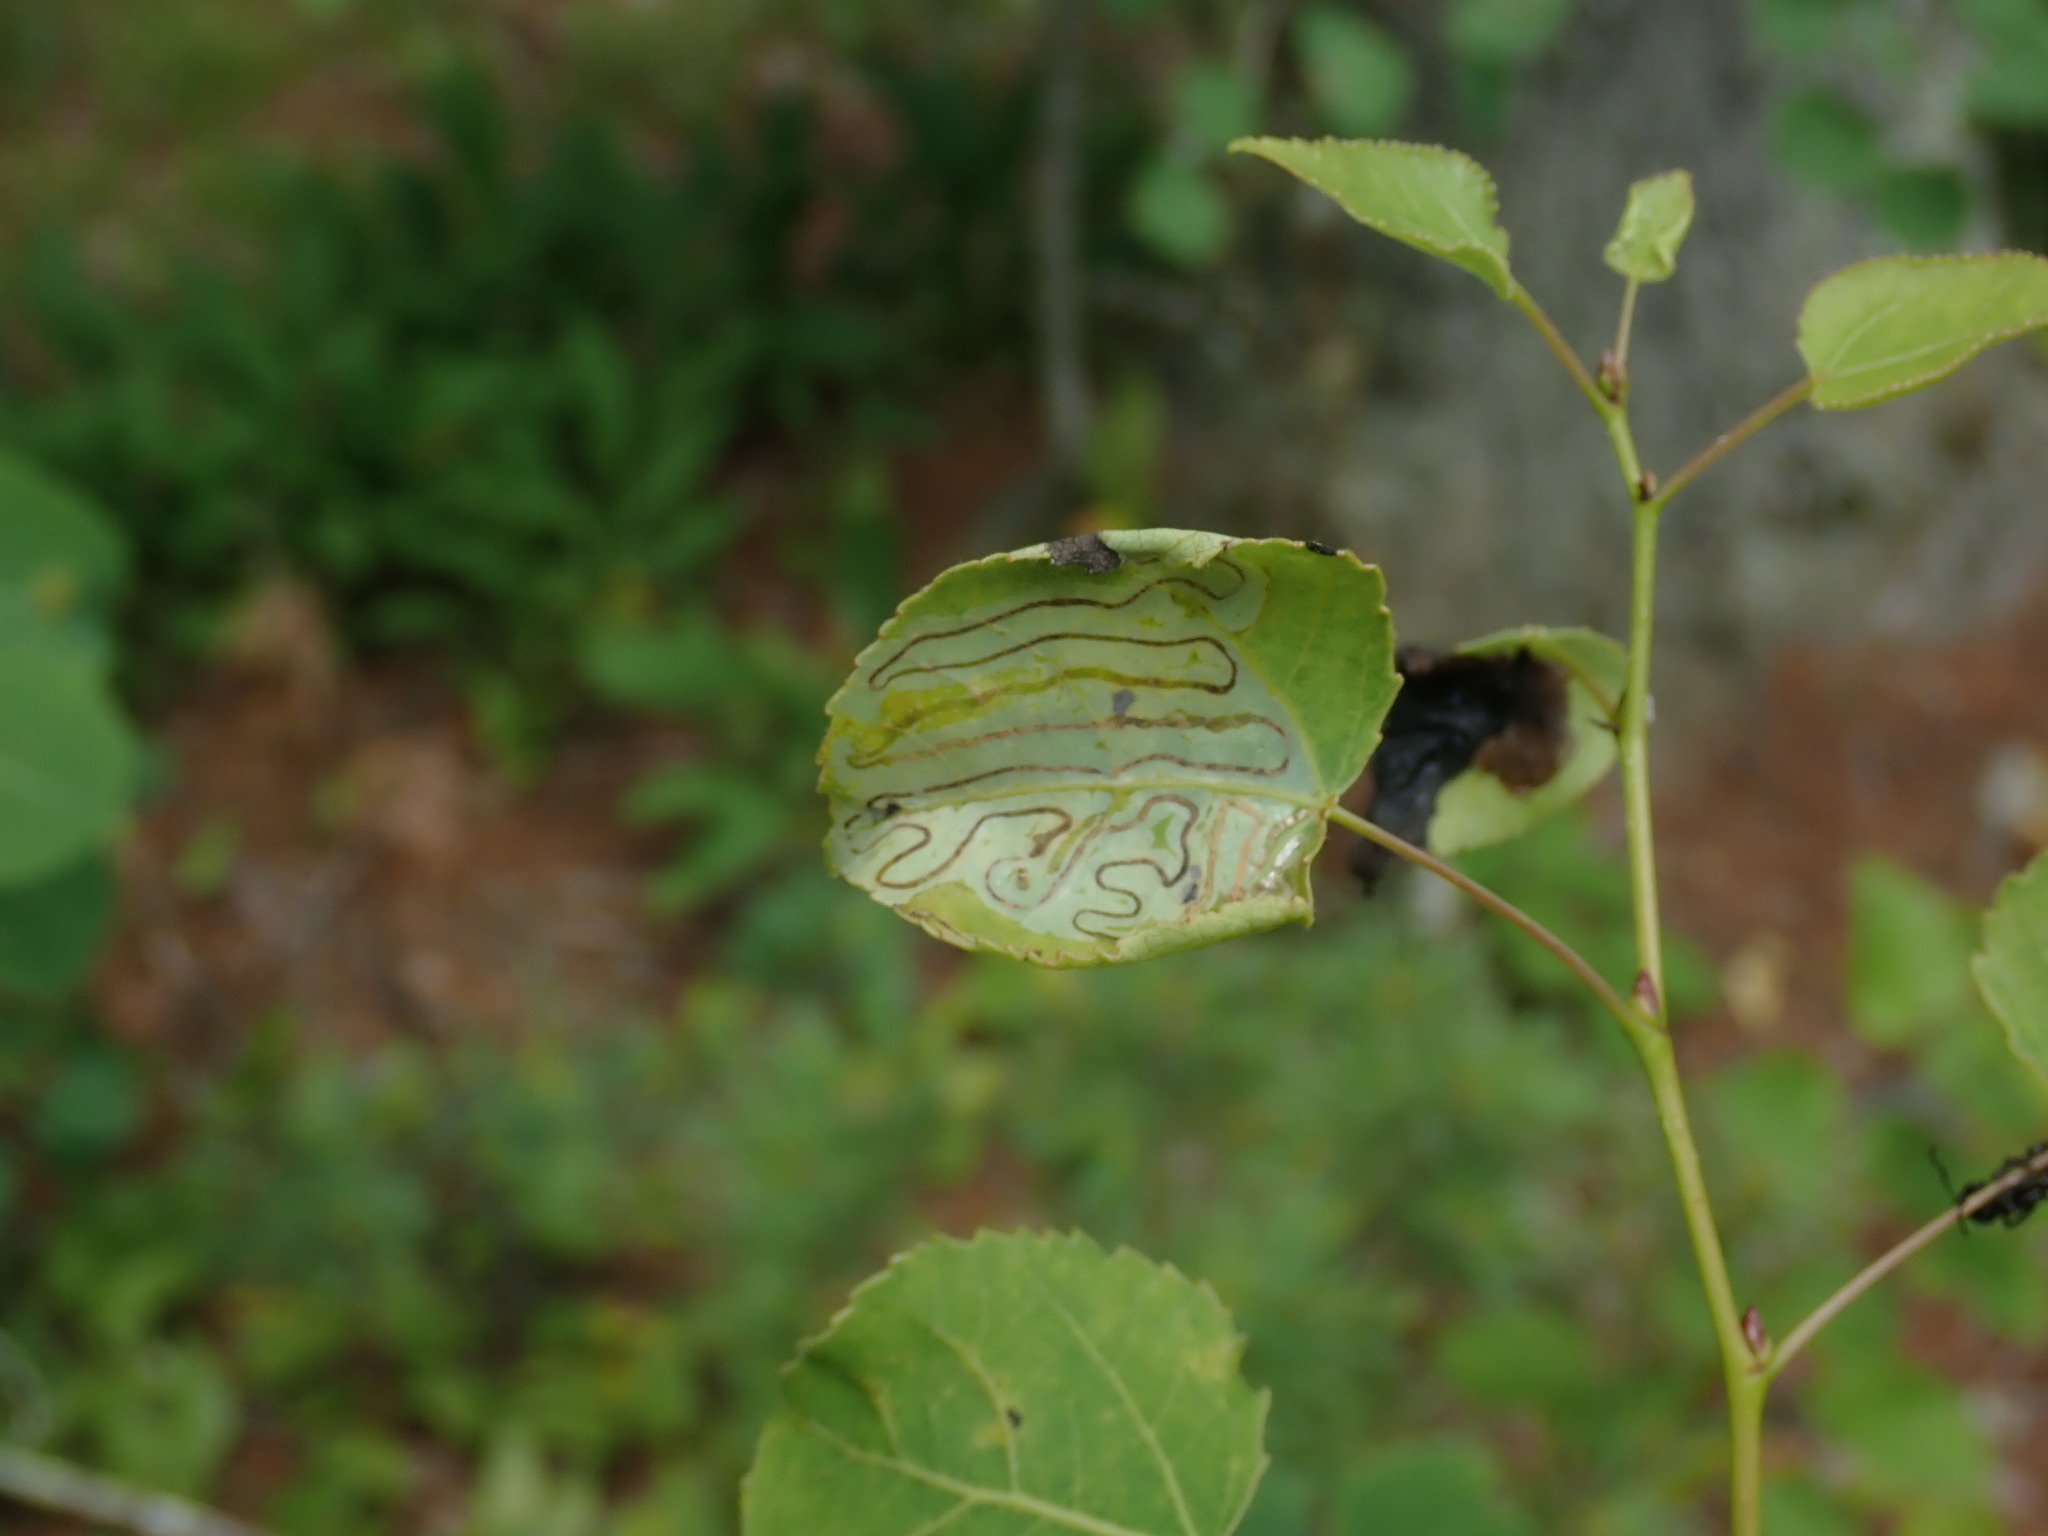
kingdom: Animalia
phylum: Arthropoda
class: Insecta
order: Lepidoptera
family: Gracillariidae
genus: Phyllocnistis
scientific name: Phyllocnistis populiella
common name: Aspen serpentine leafminer moth
